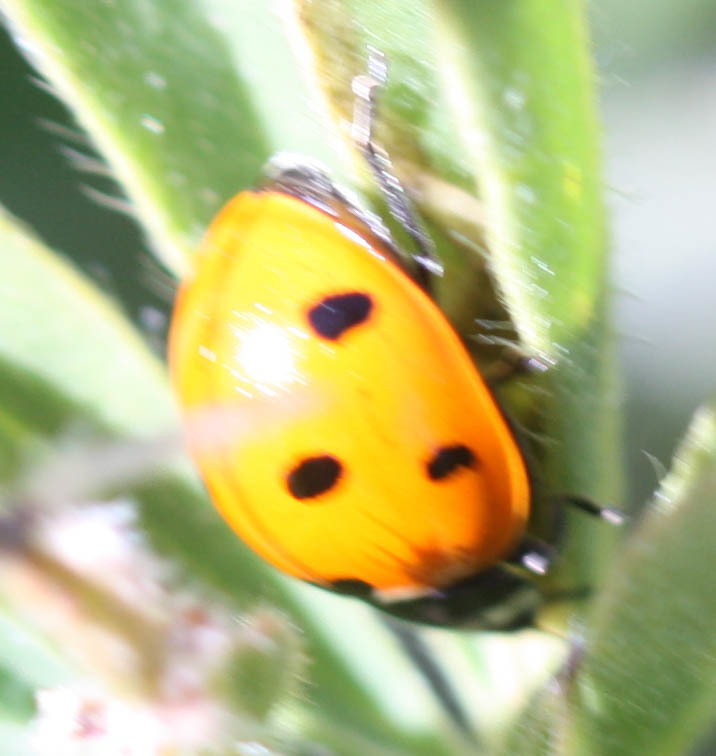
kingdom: Animalia
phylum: Arthropoda
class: Insecta
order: Coleoptera
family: Coccinellidae
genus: Coccinella
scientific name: Coccinella septempunctata
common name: Sevenspotted lady beetle
